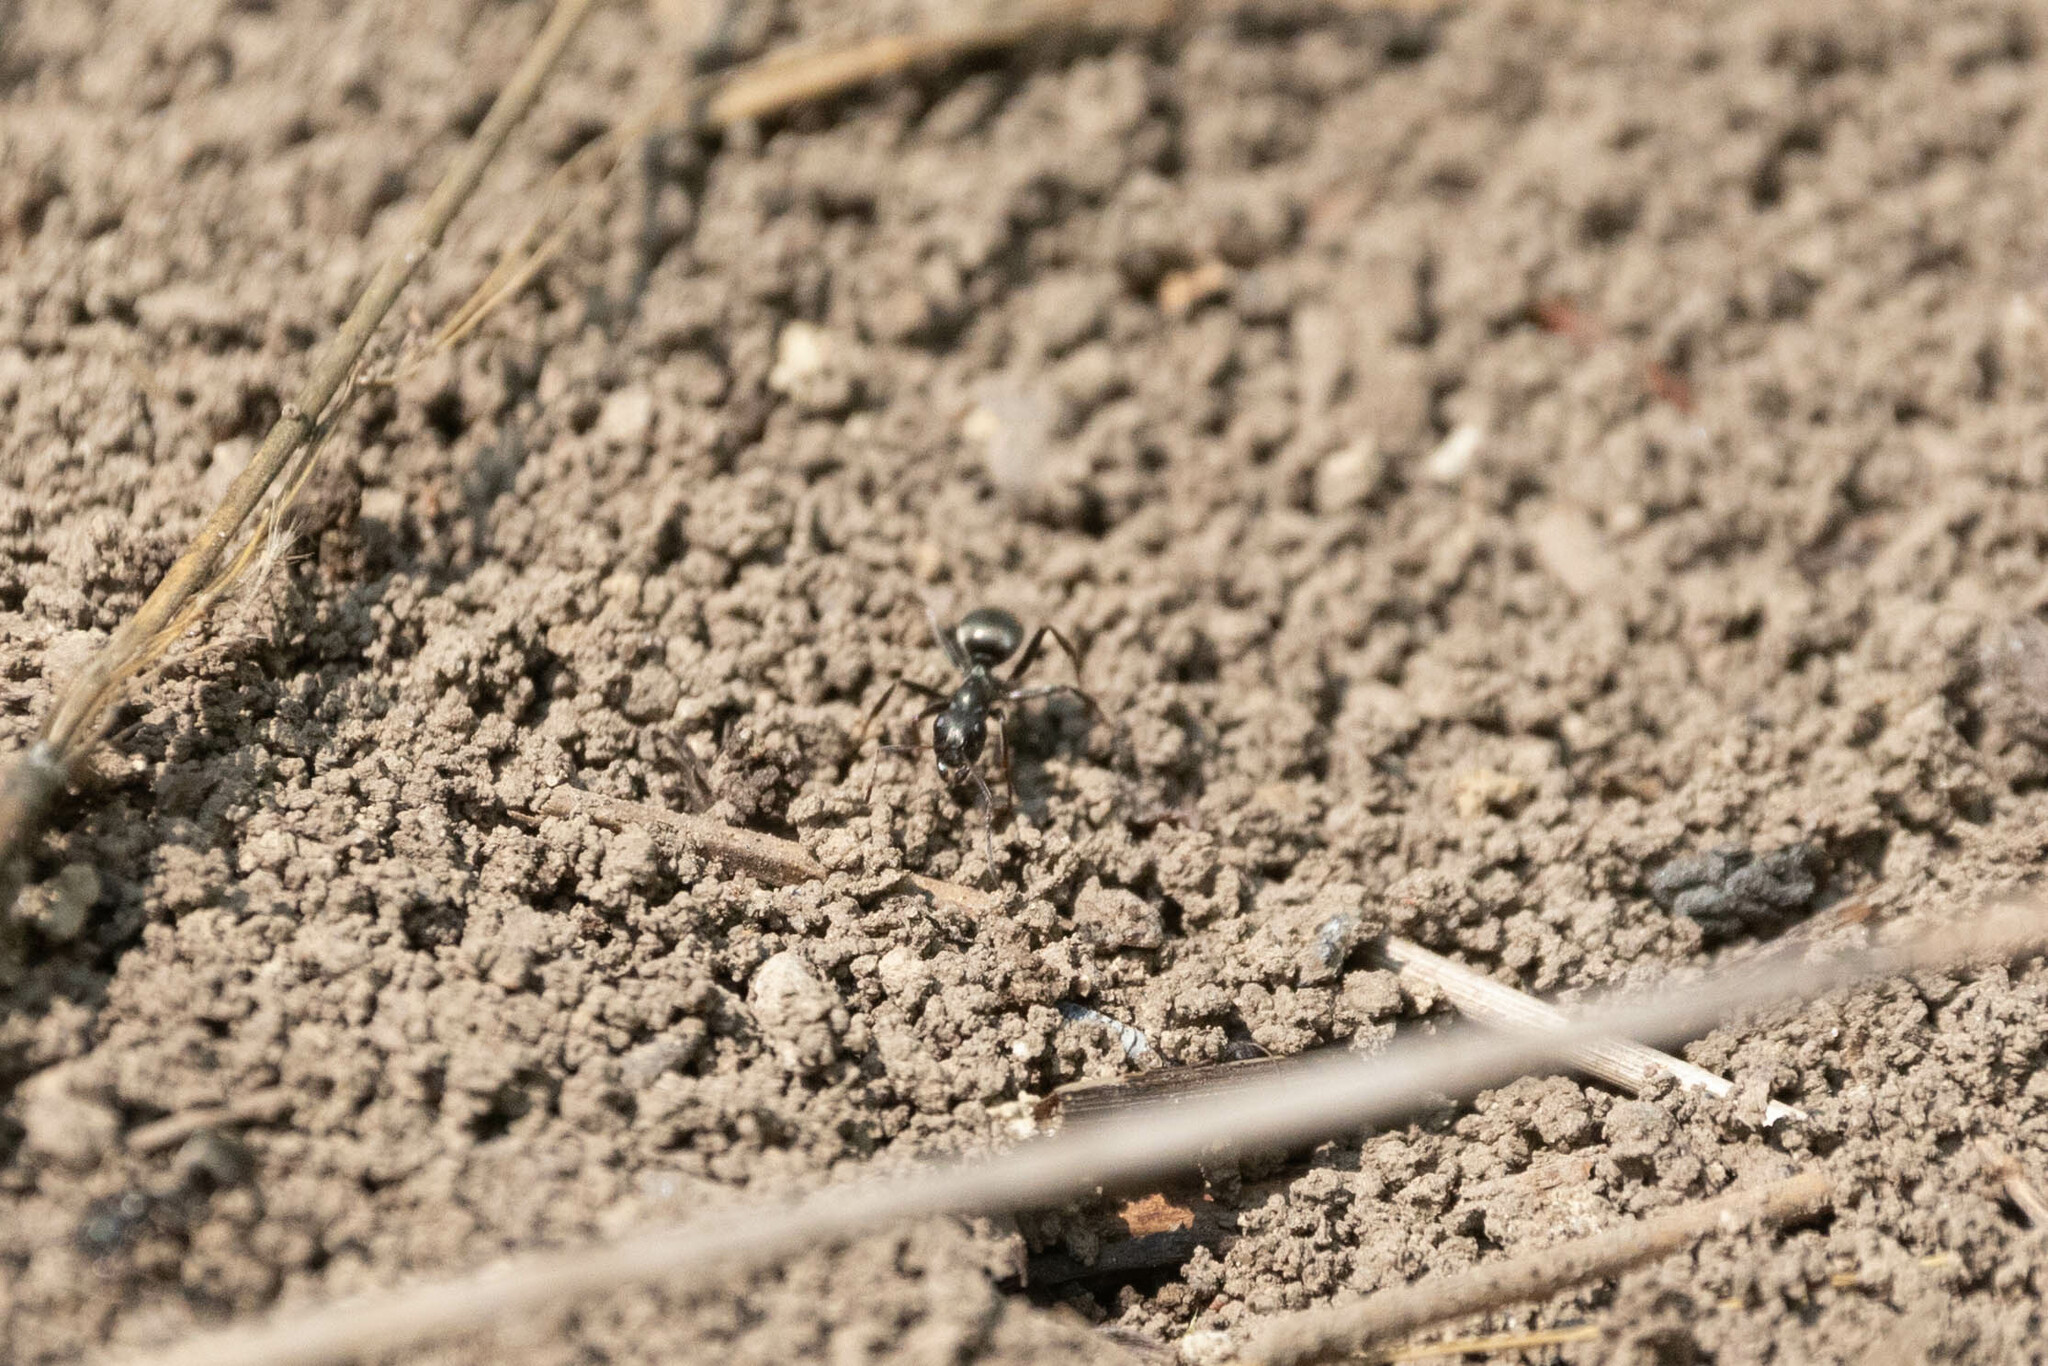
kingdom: Animalia
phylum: Arthropoda
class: Insecta
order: Hymenoptera
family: Formicidae
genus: Formica
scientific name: Formica subsericea
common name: Silky field ant
